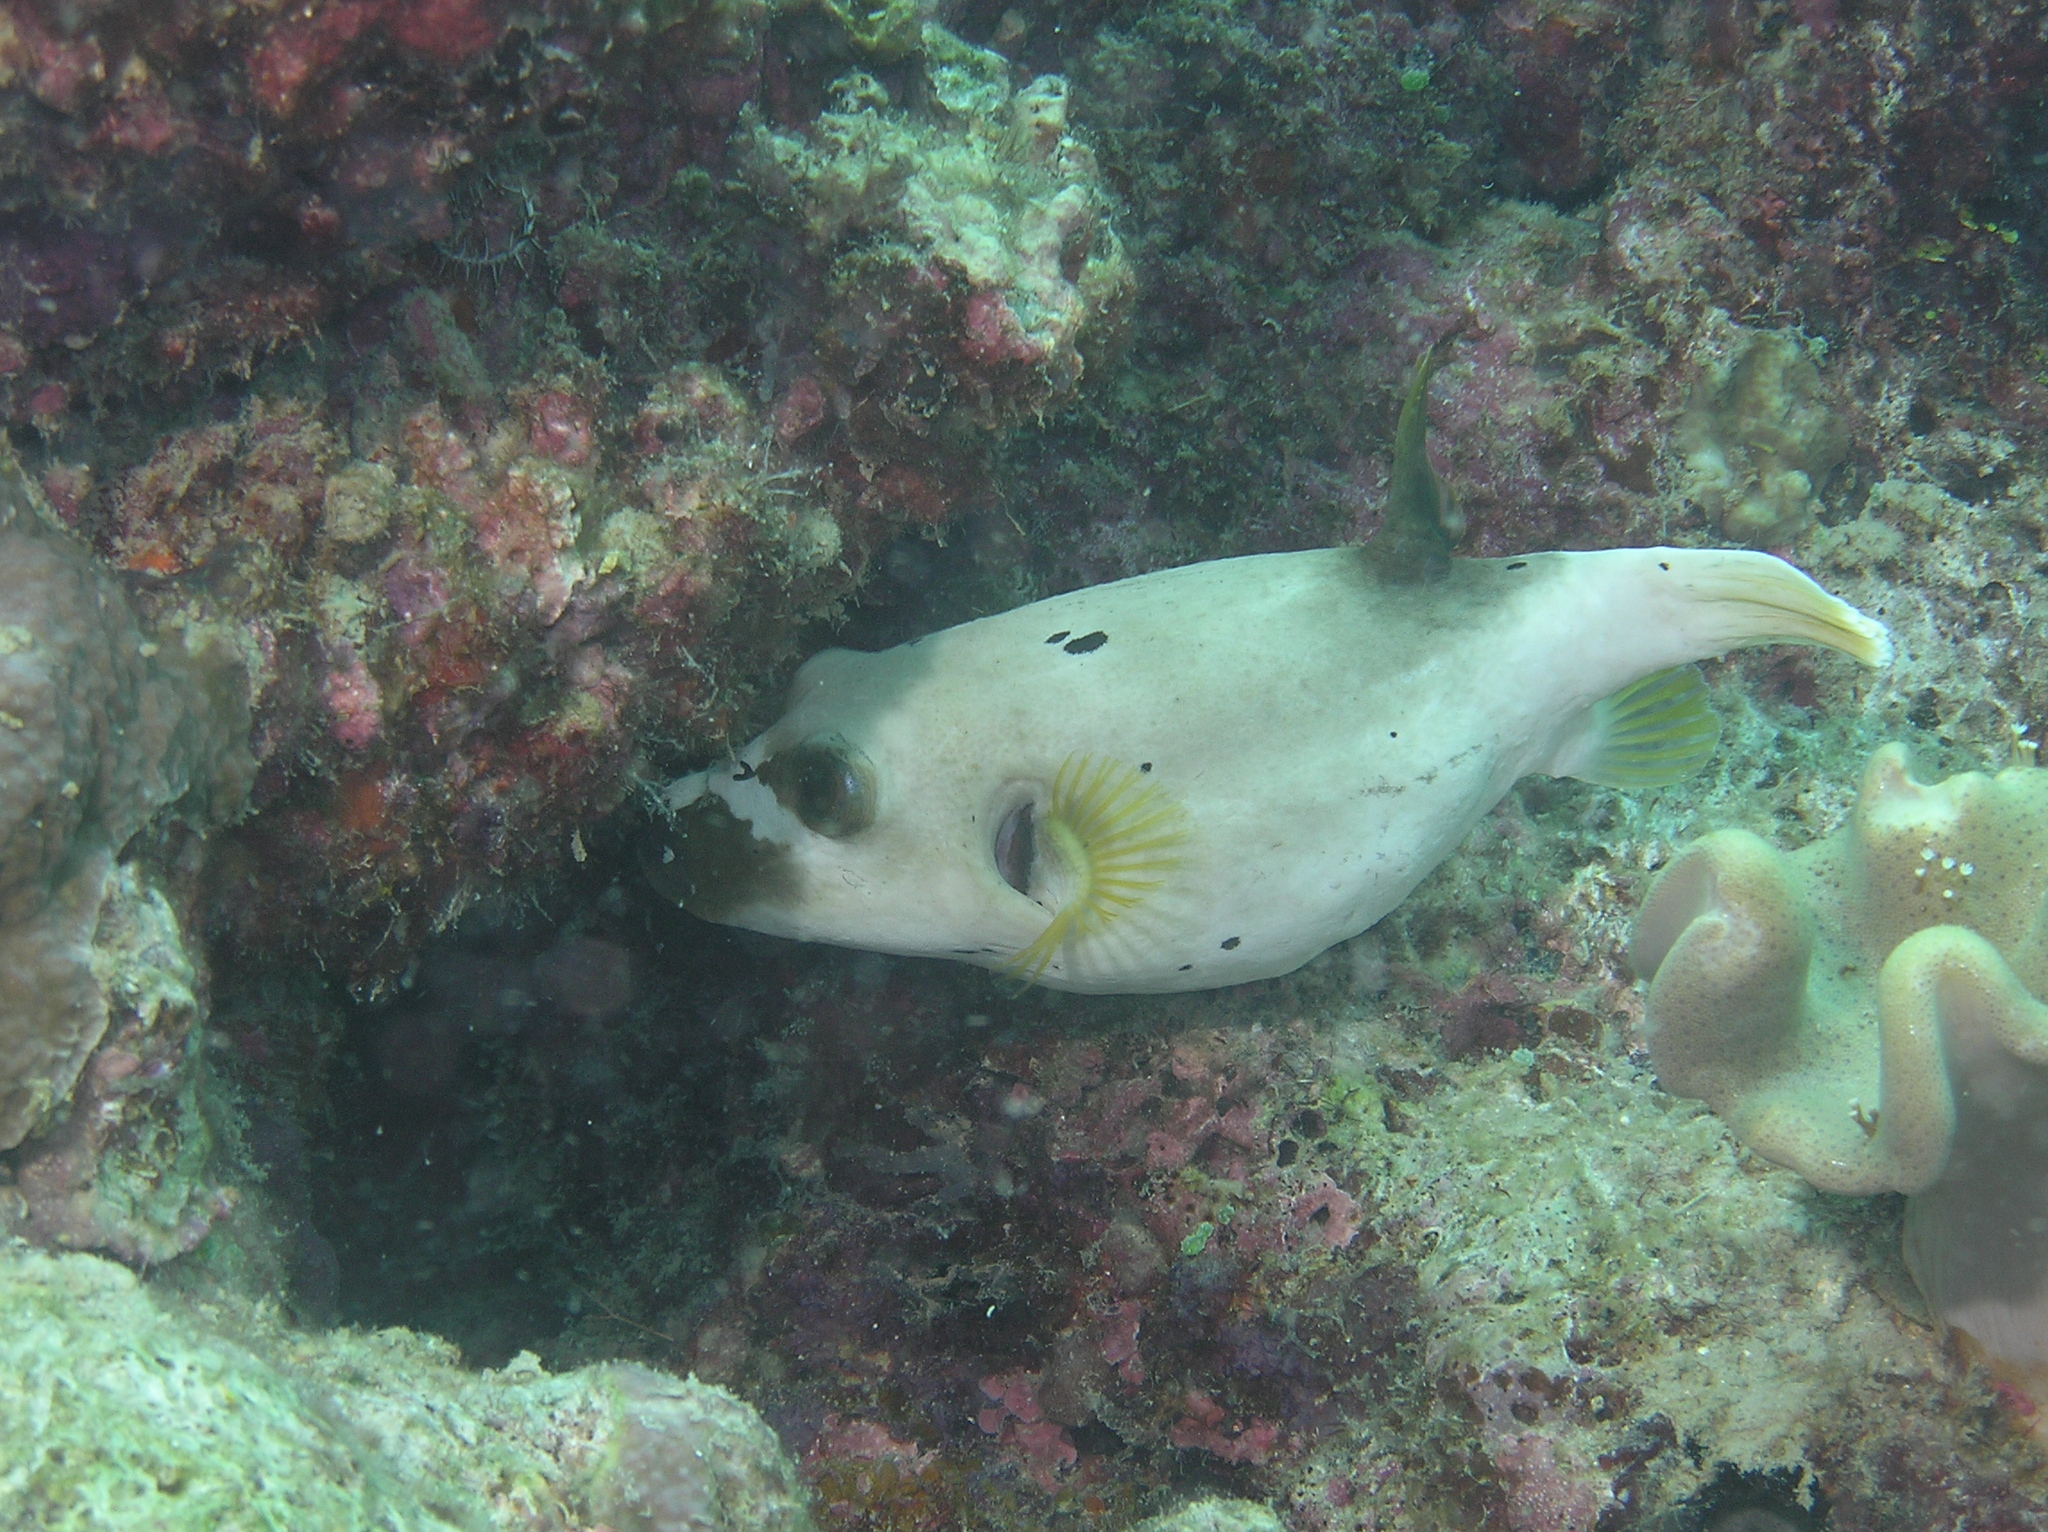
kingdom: Animalia
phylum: Chordata
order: Tetraodontiformes
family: Tetraodontidae
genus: Arothron
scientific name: Arothron nigropunctatus
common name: Black spotted blow fish
